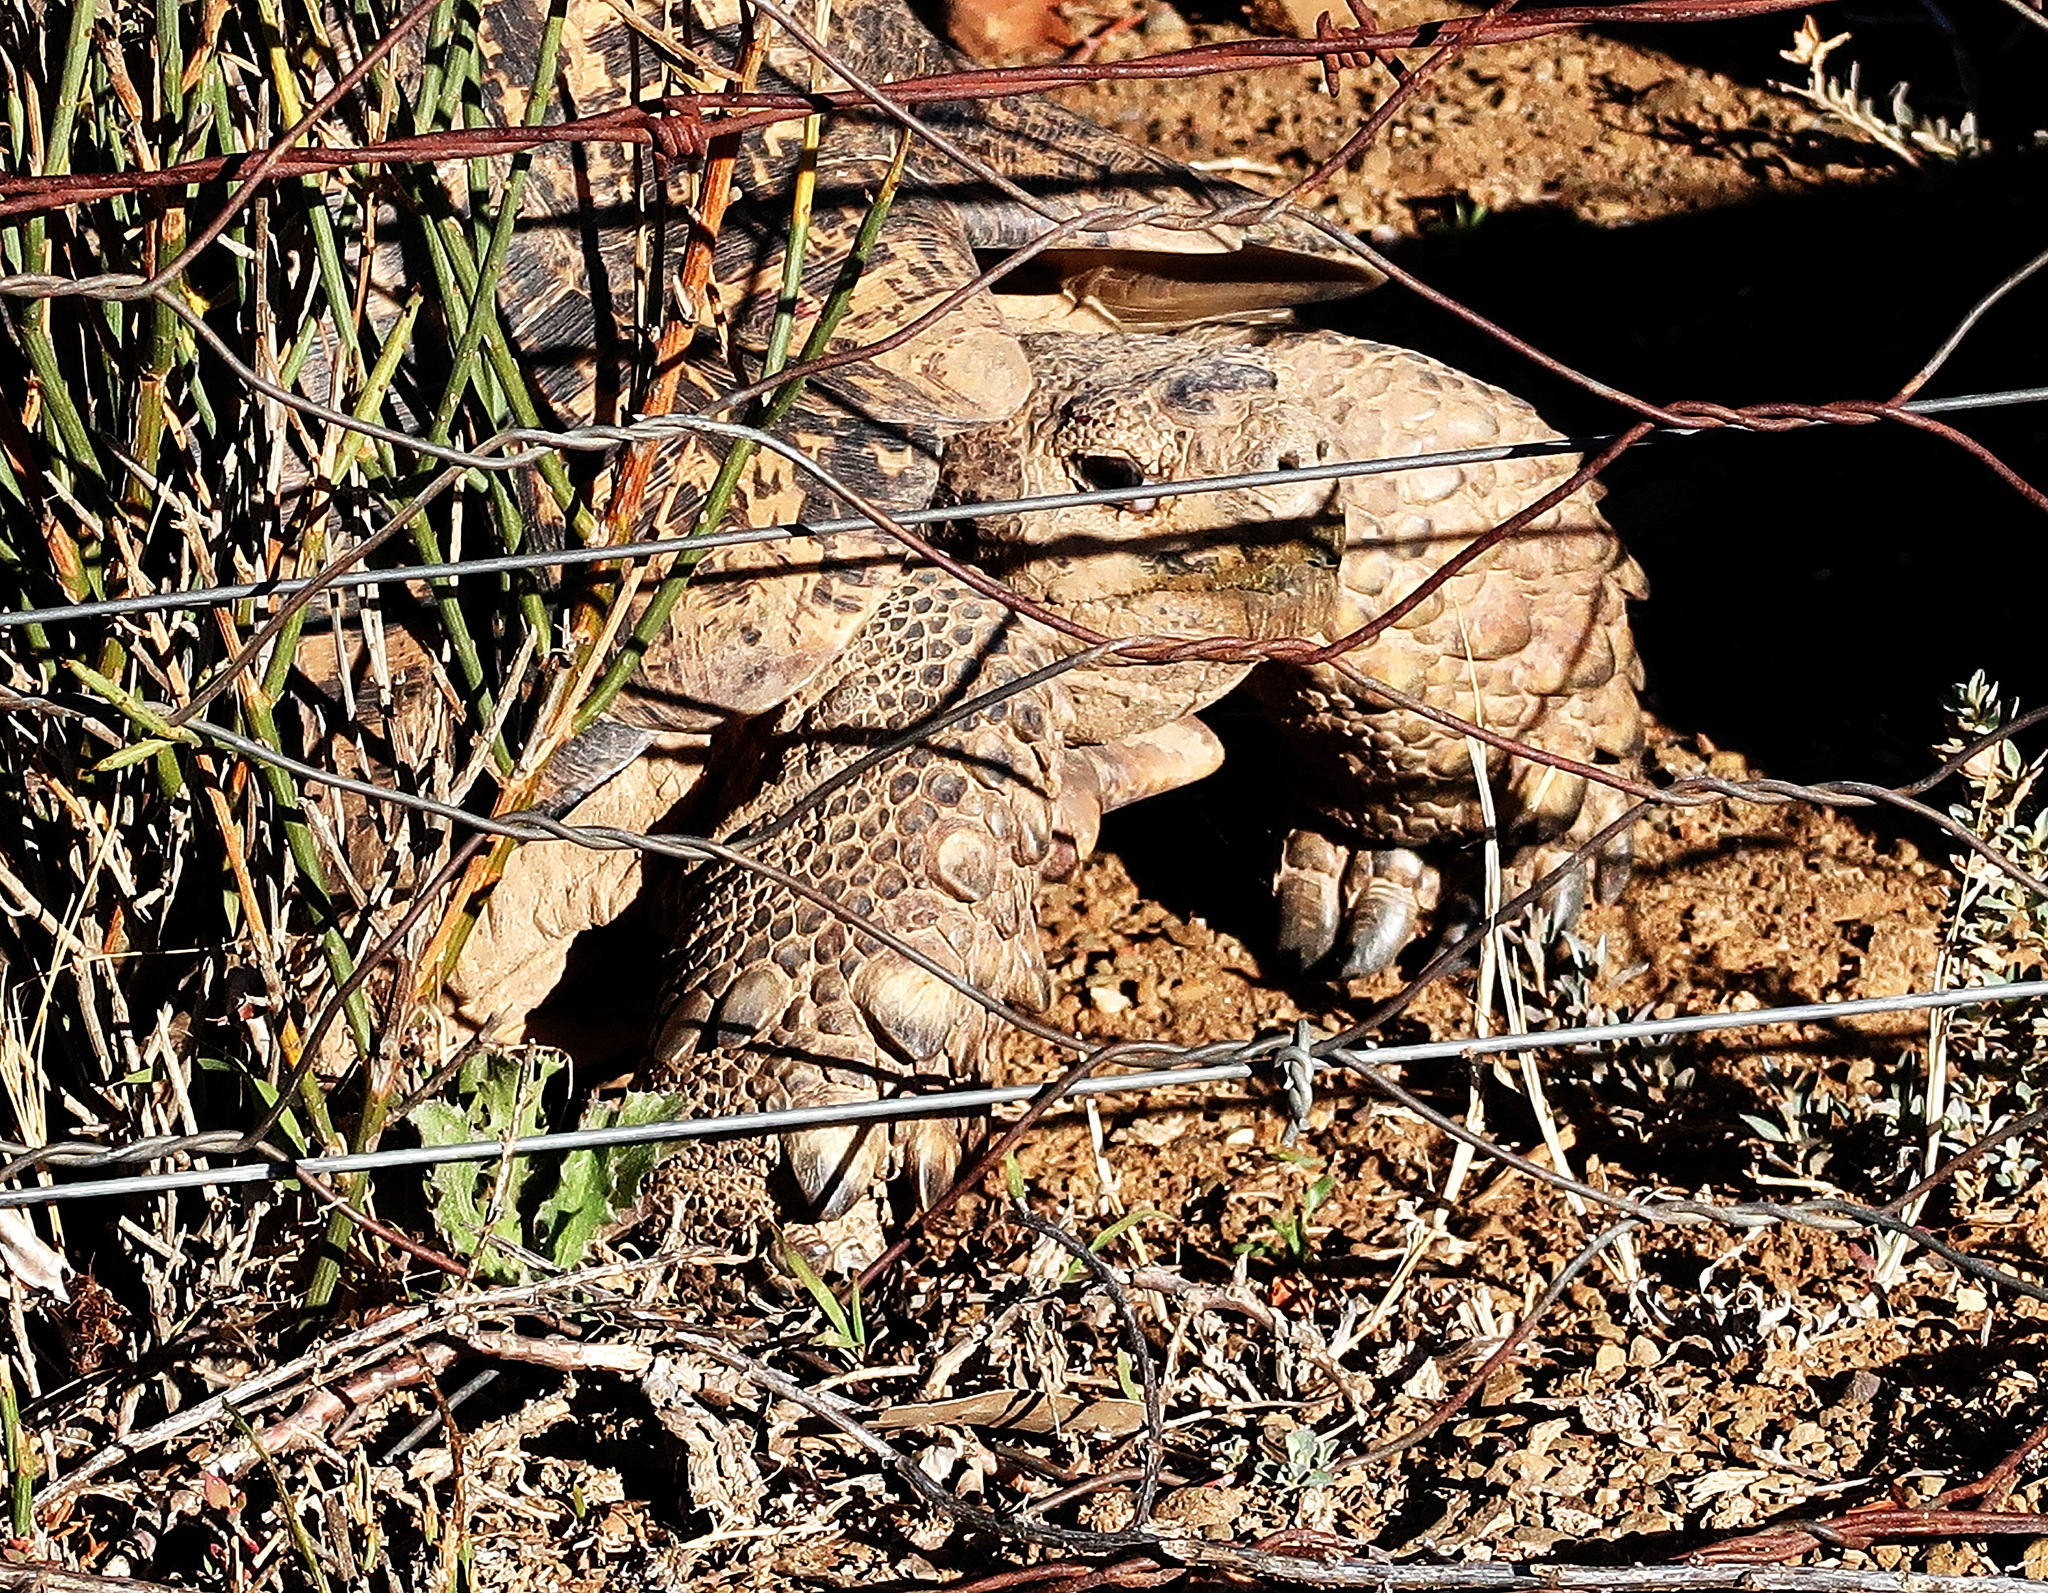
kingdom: Animalia
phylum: Chordata
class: Testudines
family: Testudinidae
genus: Stigmochelys
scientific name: Stigmochelys pardalis
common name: Leopard tortoise
